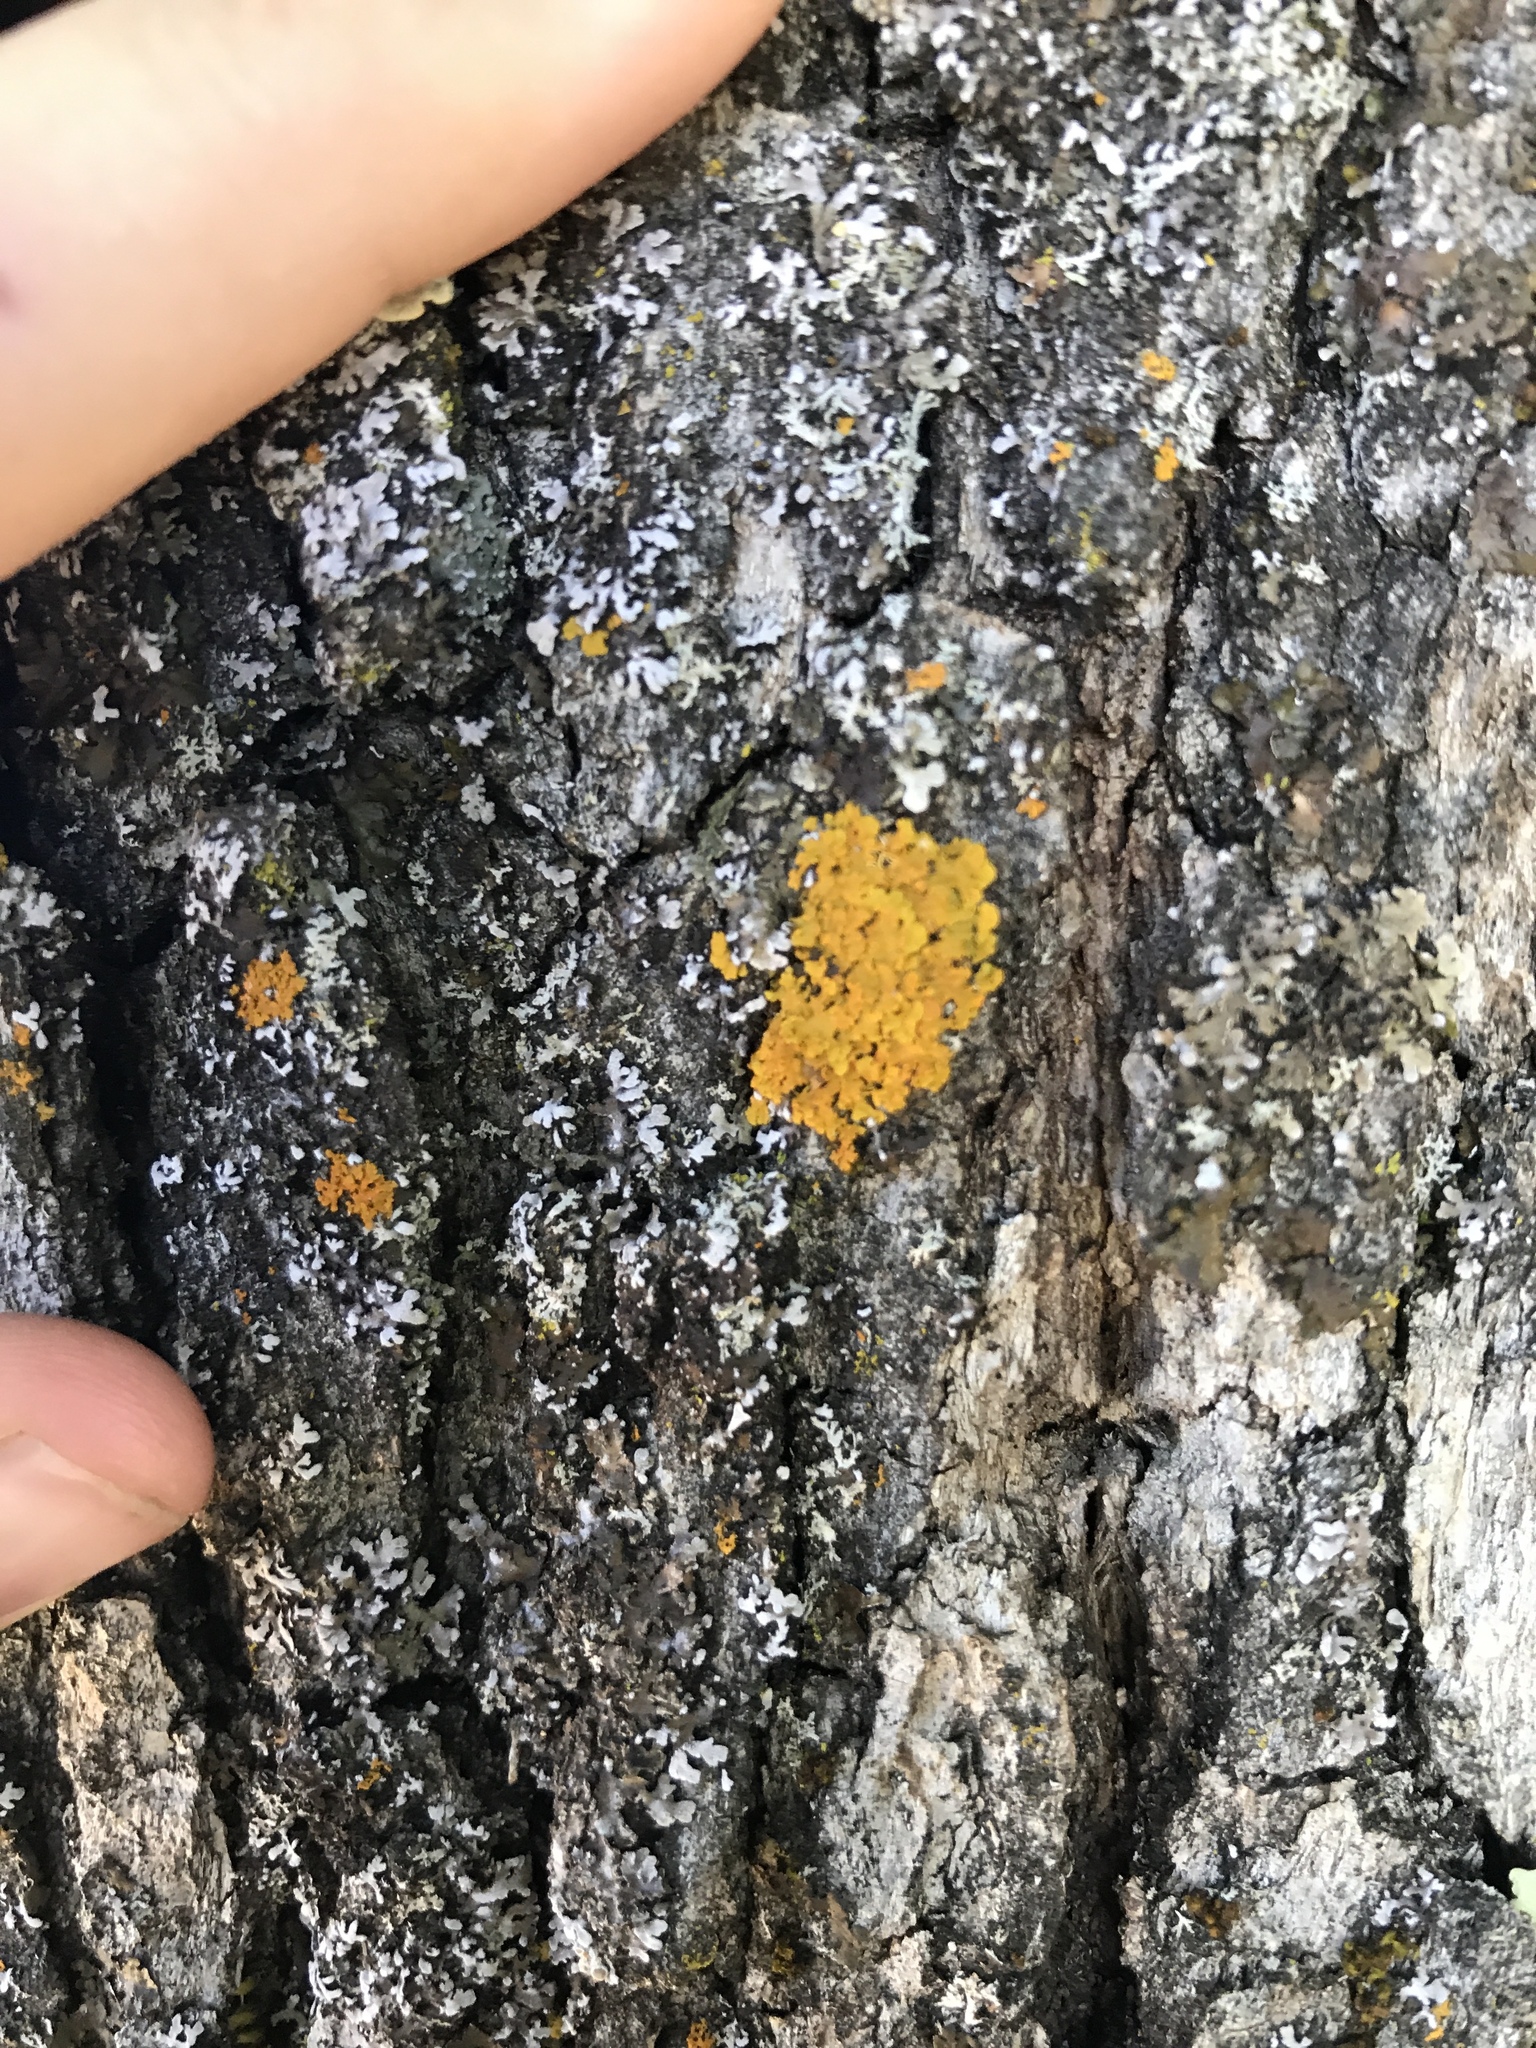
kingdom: Fungi
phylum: Ascomycota
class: Lecanoromycetes
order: Teloschistales
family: Teloschistaceae
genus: Xanthoria
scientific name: Xanthoria parietina
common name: Common orange lichen
